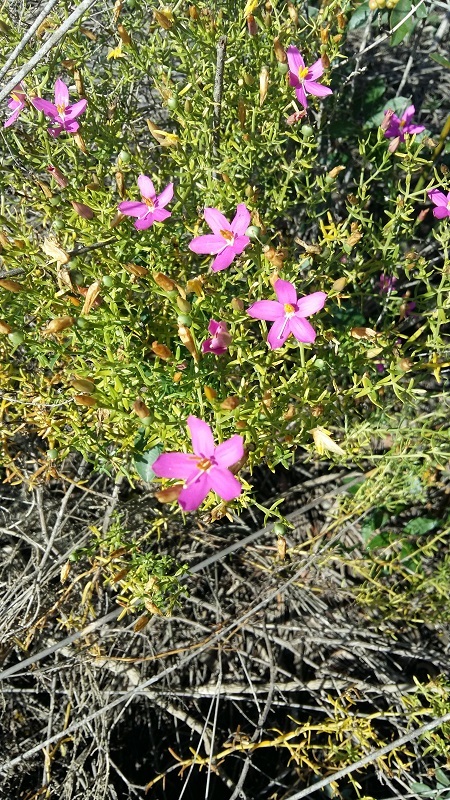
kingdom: Plantae
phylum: Tracheophyta
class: Magnoliopsida
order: Gentianales
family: Gentianaceae
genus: Chironia
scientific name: Chironia baccifera
